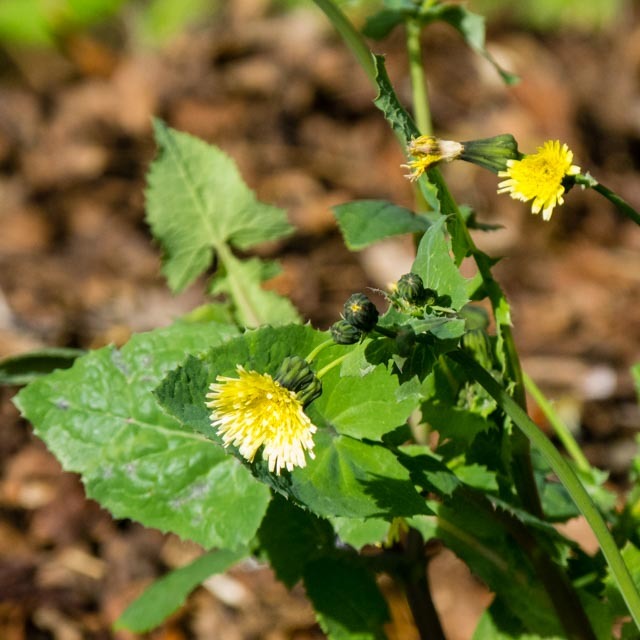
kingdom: Plantae
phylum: Tracheophyta
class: Magnoliopsida
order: Asterales
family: Asteraceae
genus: Sonchus
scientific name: Sonchus oleraceus
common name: Common sowthistle
